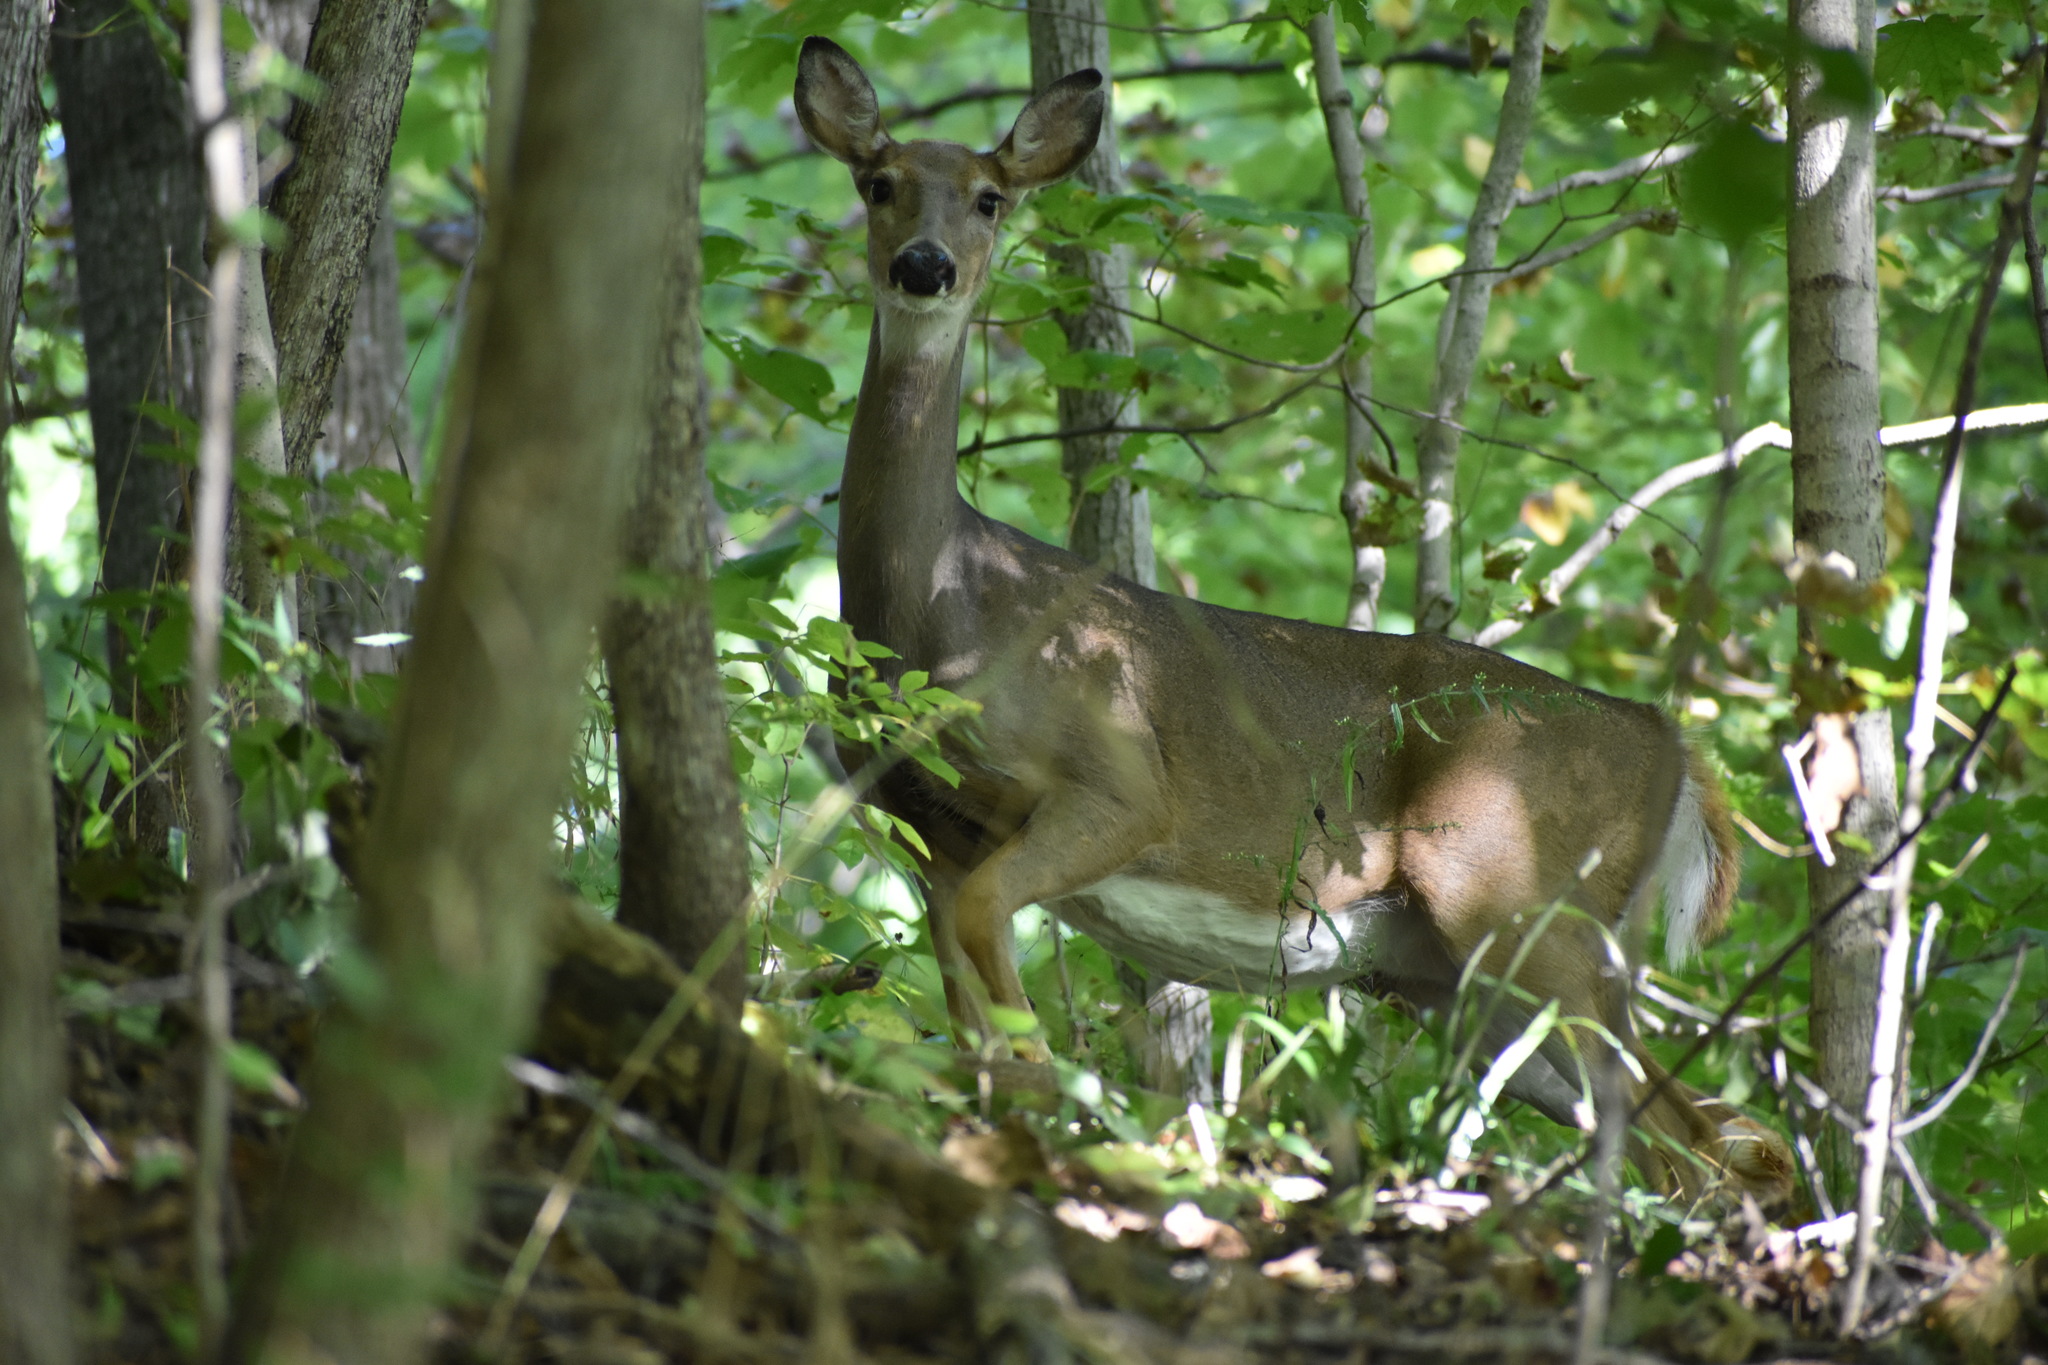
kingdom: Animalia
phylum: Chordata
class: Mammalia
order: Artiodactyla
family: Cervidae
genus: Odocoileus
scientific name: Odocoileus virginianus
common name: White-tailed deer
